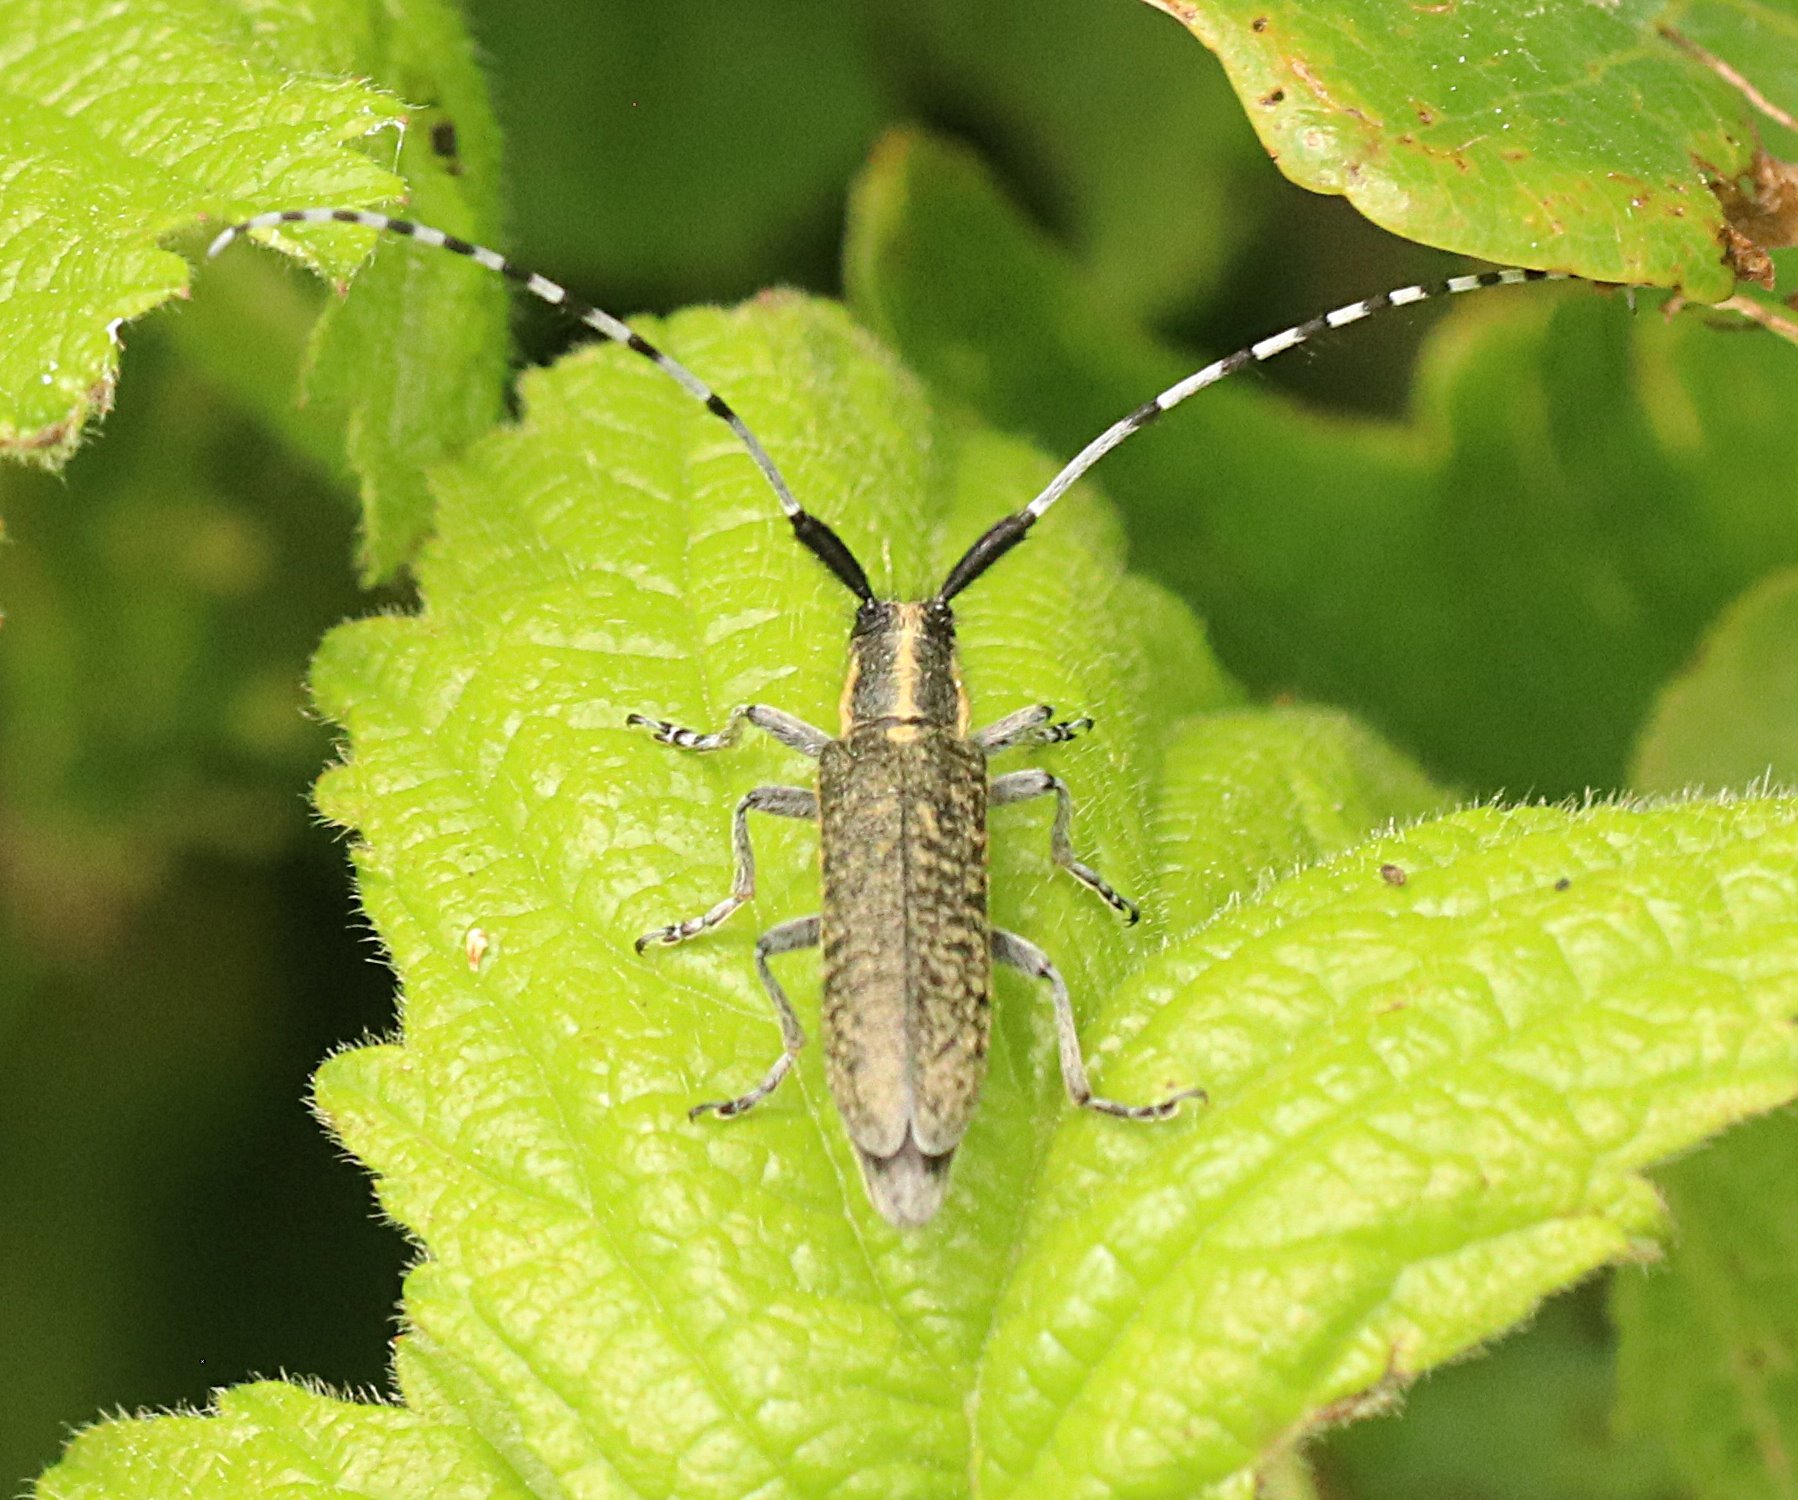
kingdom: Animalia
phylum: Arthropoda
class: Insecta
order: Coleoptera
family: Cerambycidae
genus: Agapanthia
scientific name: Agapanthia villosoviridescens
